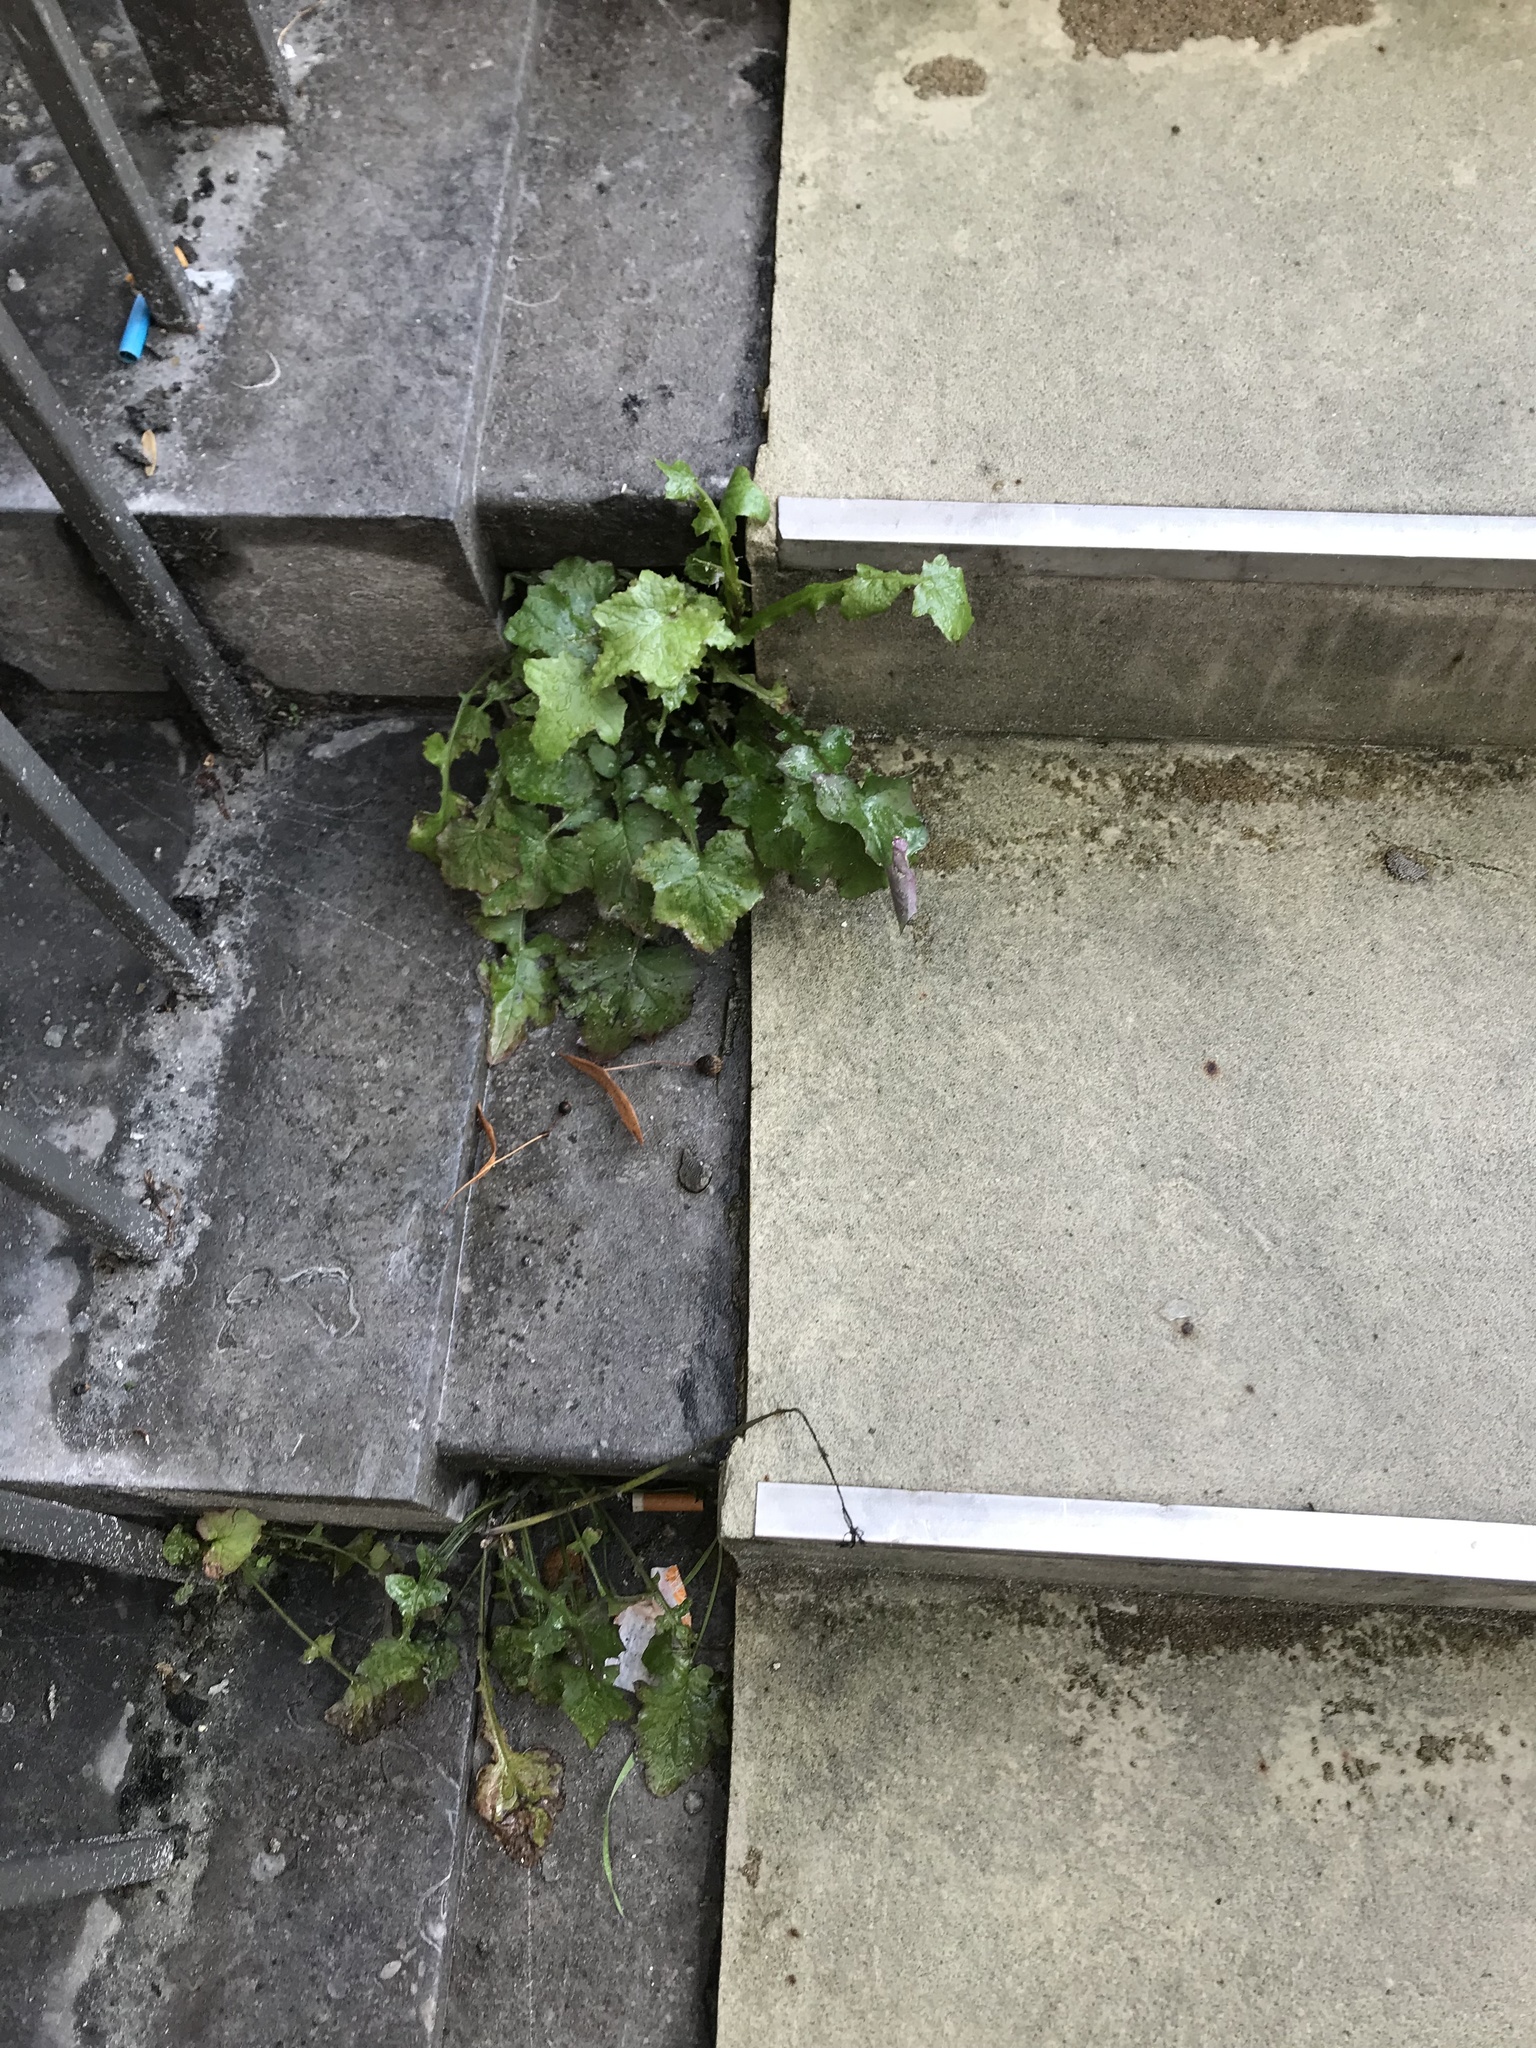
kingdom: Plantae
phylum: Tracheophyta
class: Magnoliopsida
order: Asterales
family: Asteraceae
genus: Mycelis
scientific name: Mycelis muralis
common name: Wall lettuce
